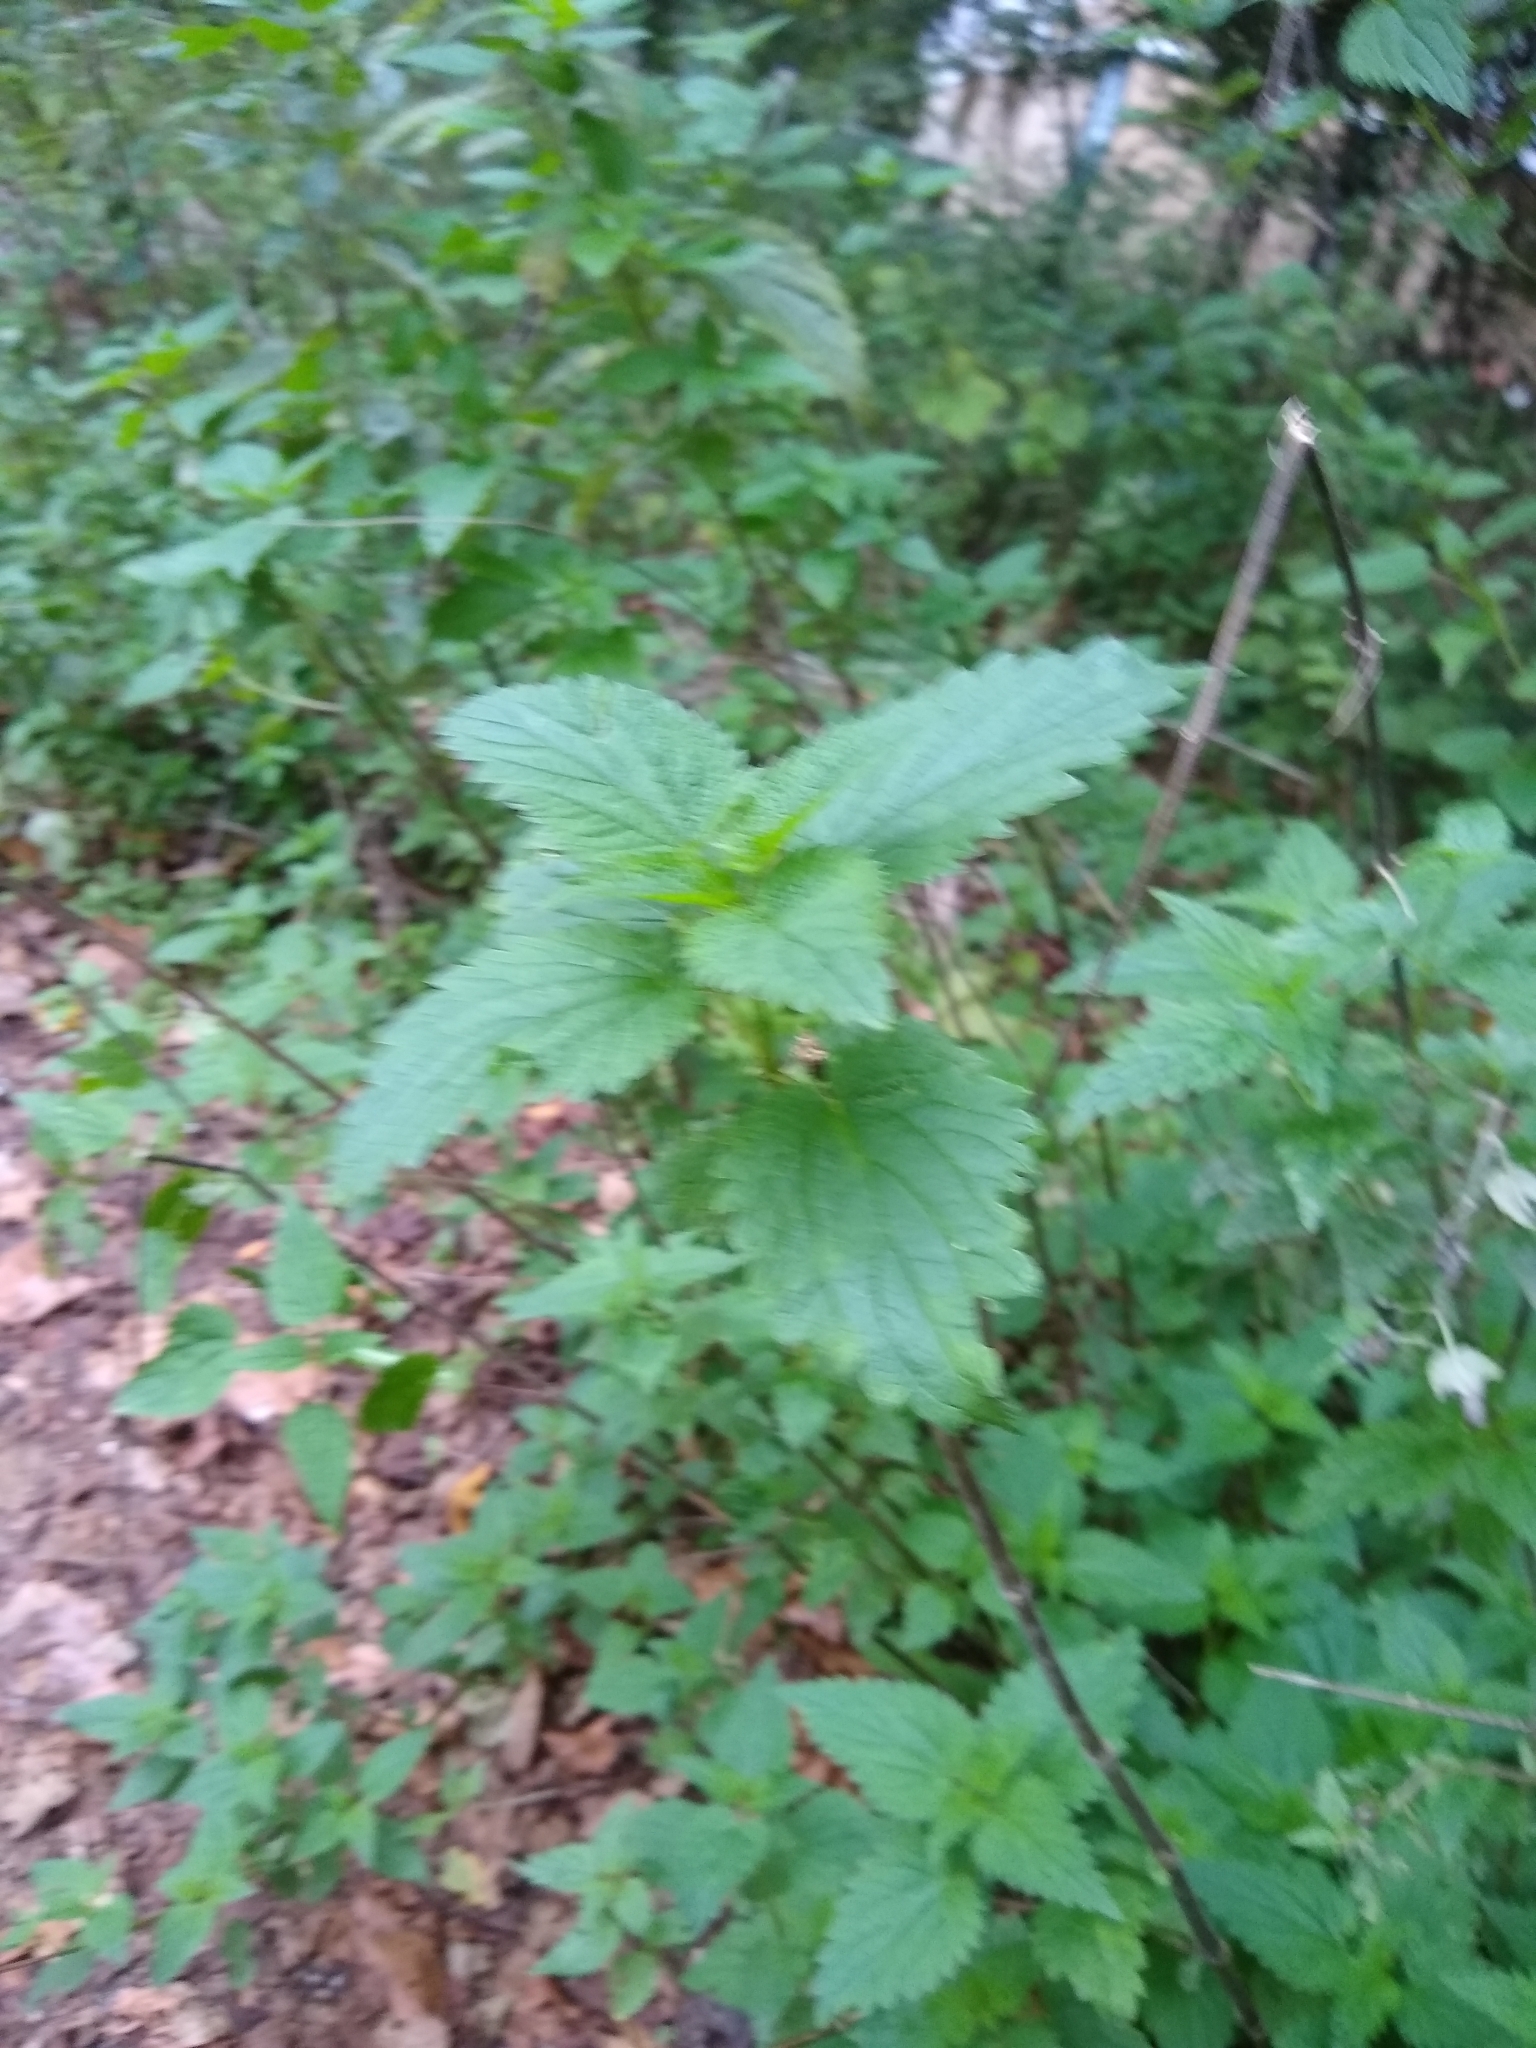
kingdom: Plantae
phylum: Tracheophyta
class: Magnoliopsida
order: Rosales
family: Urticaceae
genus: Urtica
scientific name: Urtica dioica
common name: Common nettle
